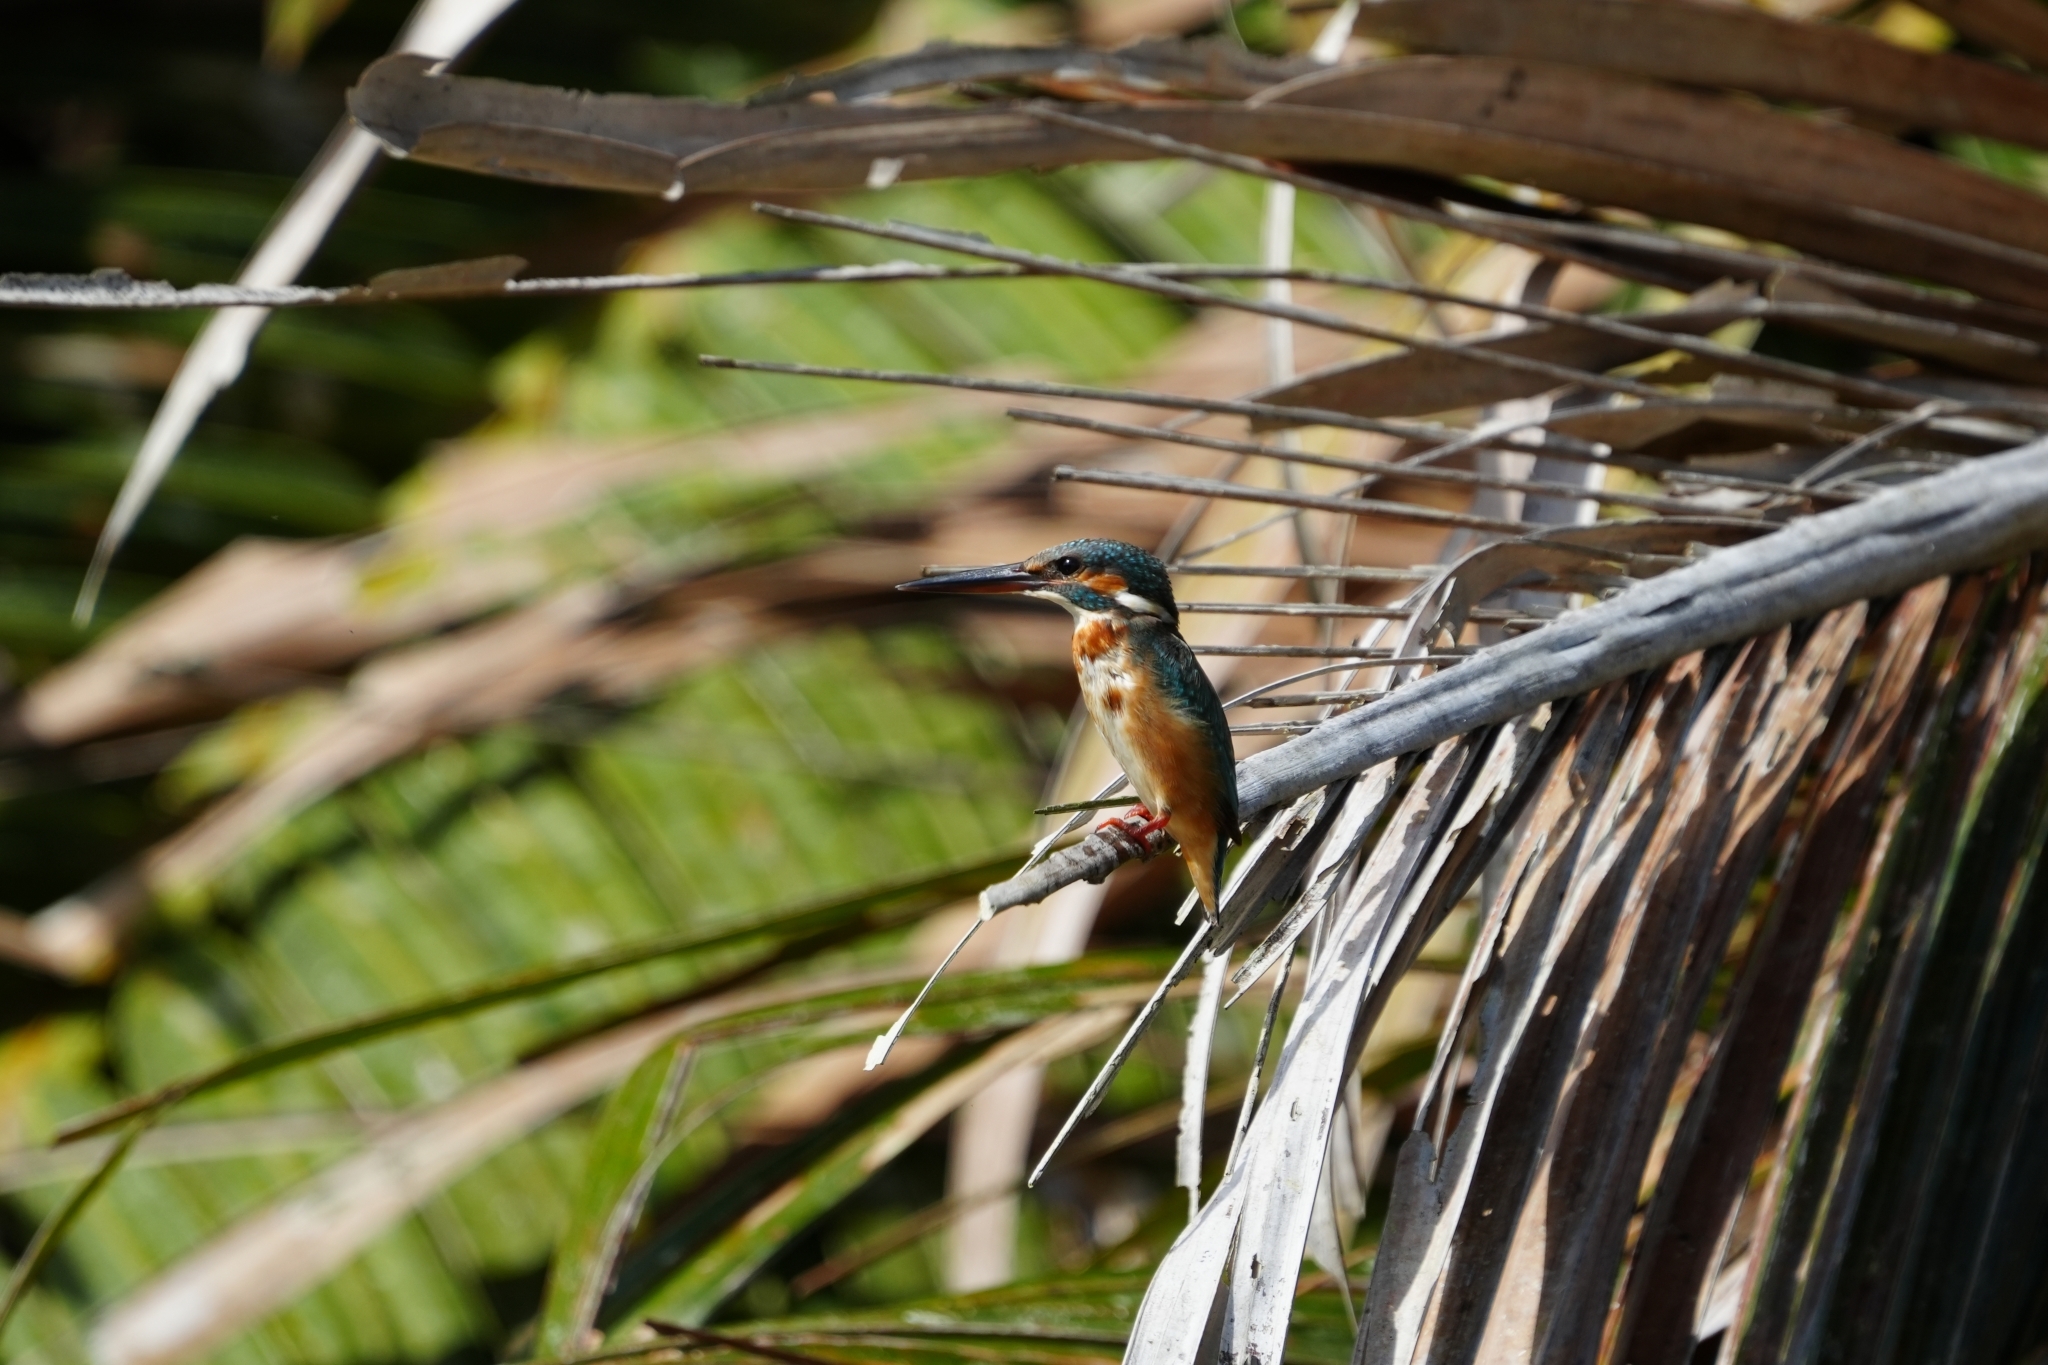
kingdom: Animalia
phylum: Chordata
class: Aves
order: Coraciiformes
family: Alcedinidae
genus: Alcedo
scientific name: Alcedo atthis
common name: Common kingfisher
